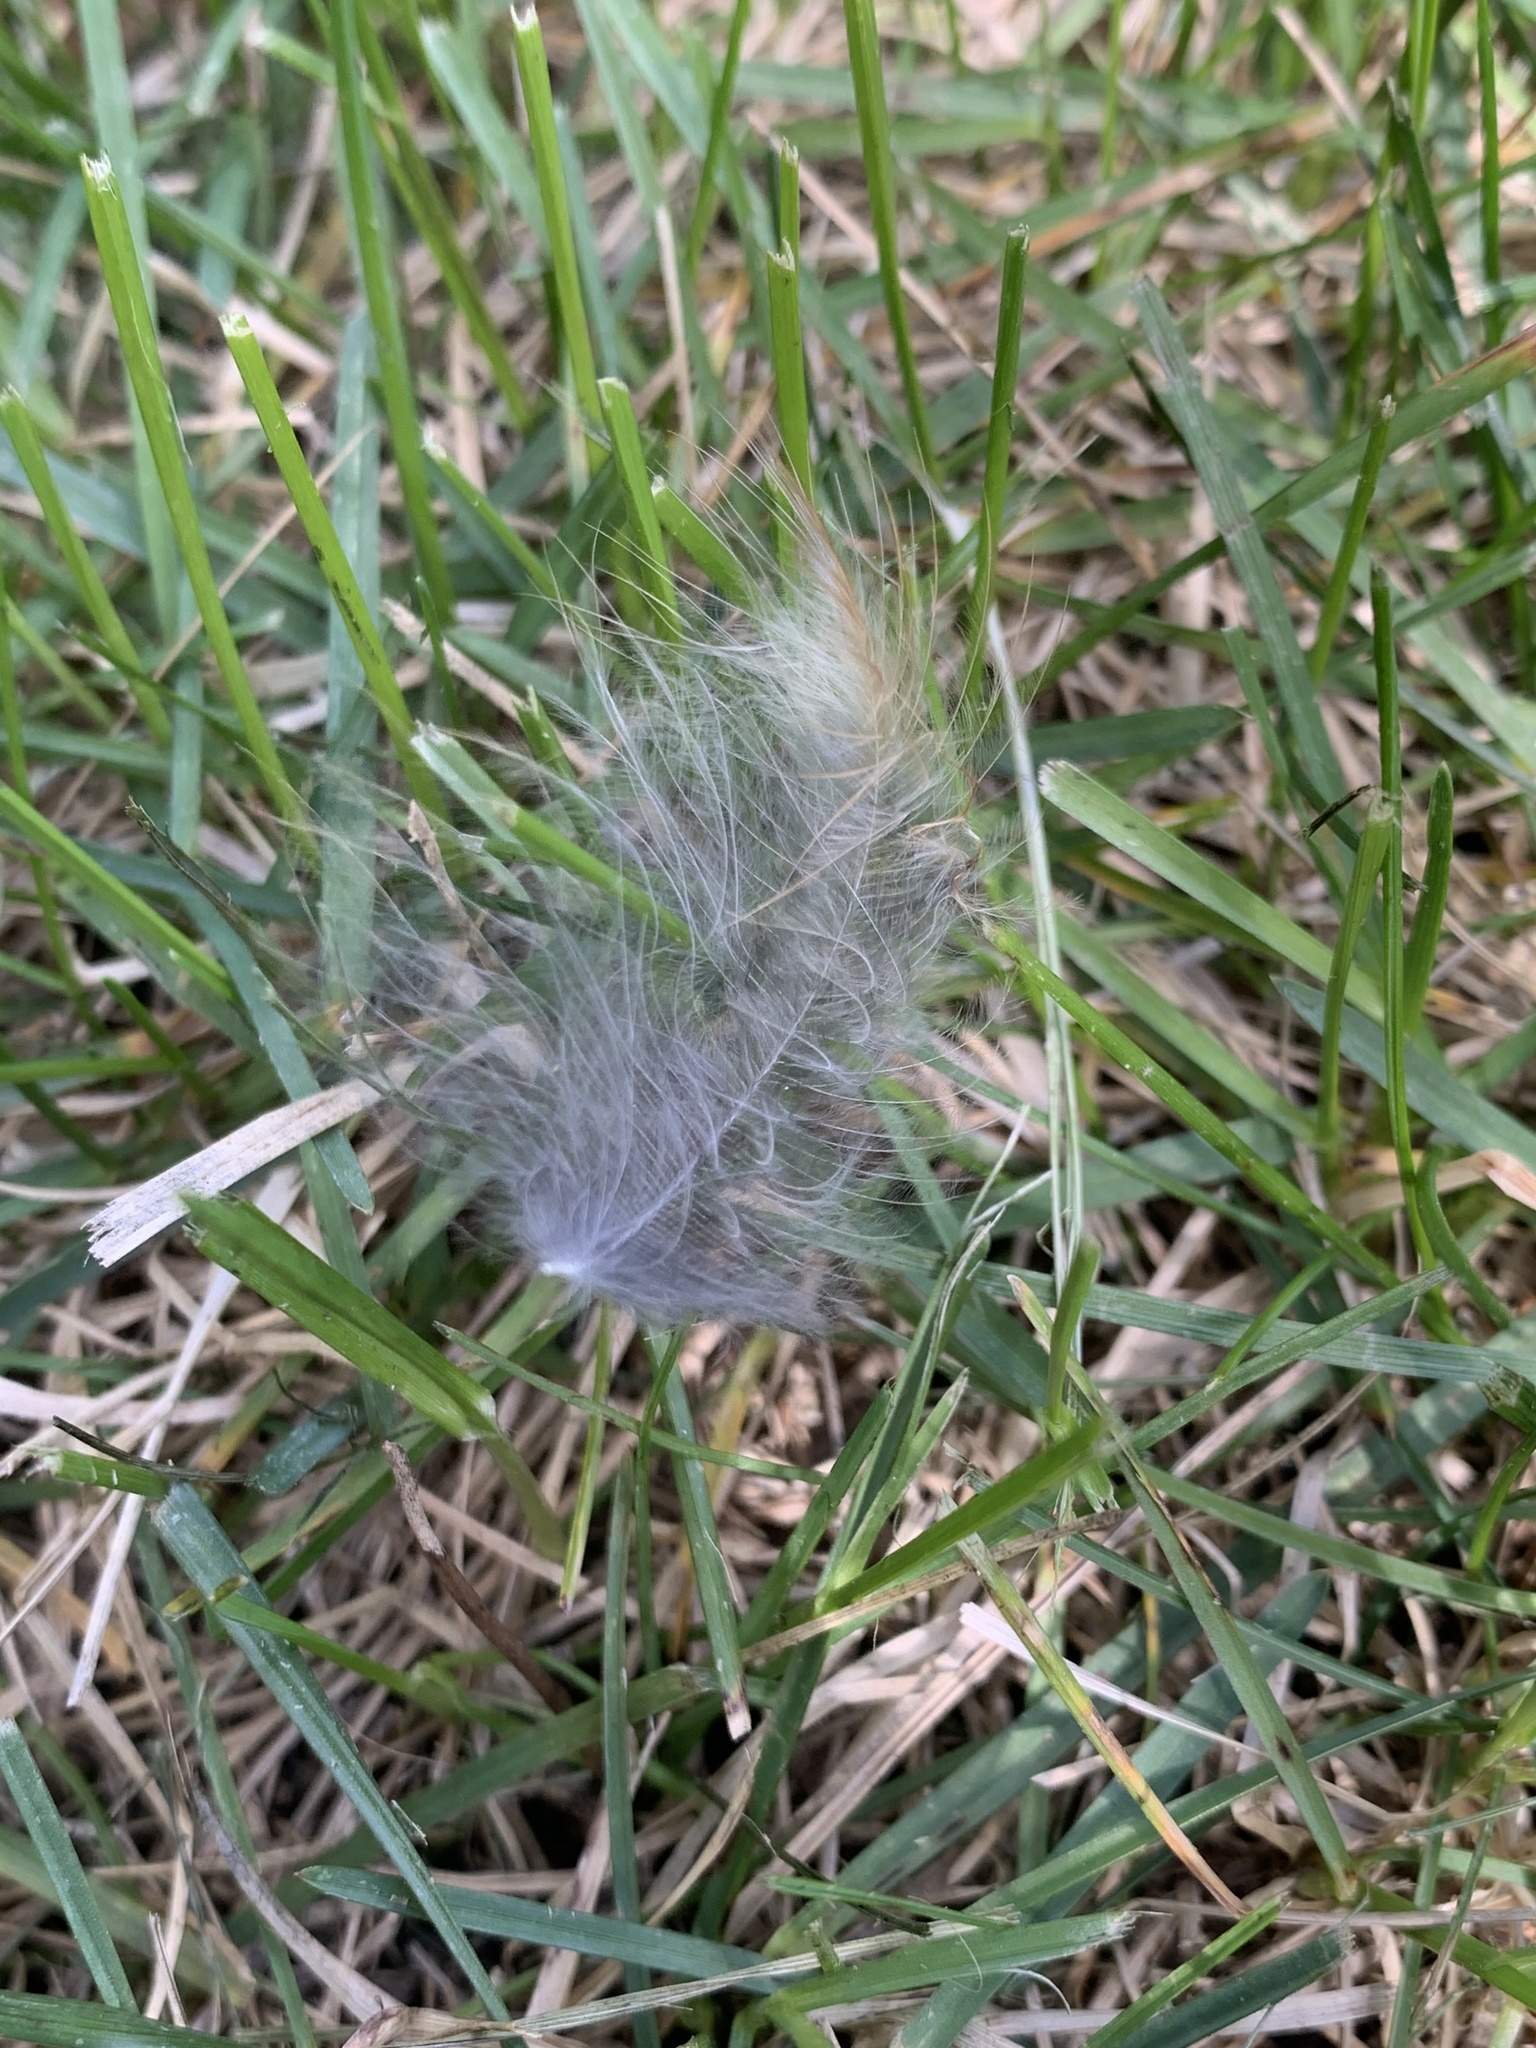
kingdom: Animalia
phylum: Chordata
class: Aves
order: Passeriformes
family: Turdidae
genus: Turdus
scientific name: Turdus migratorius
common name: American robin
